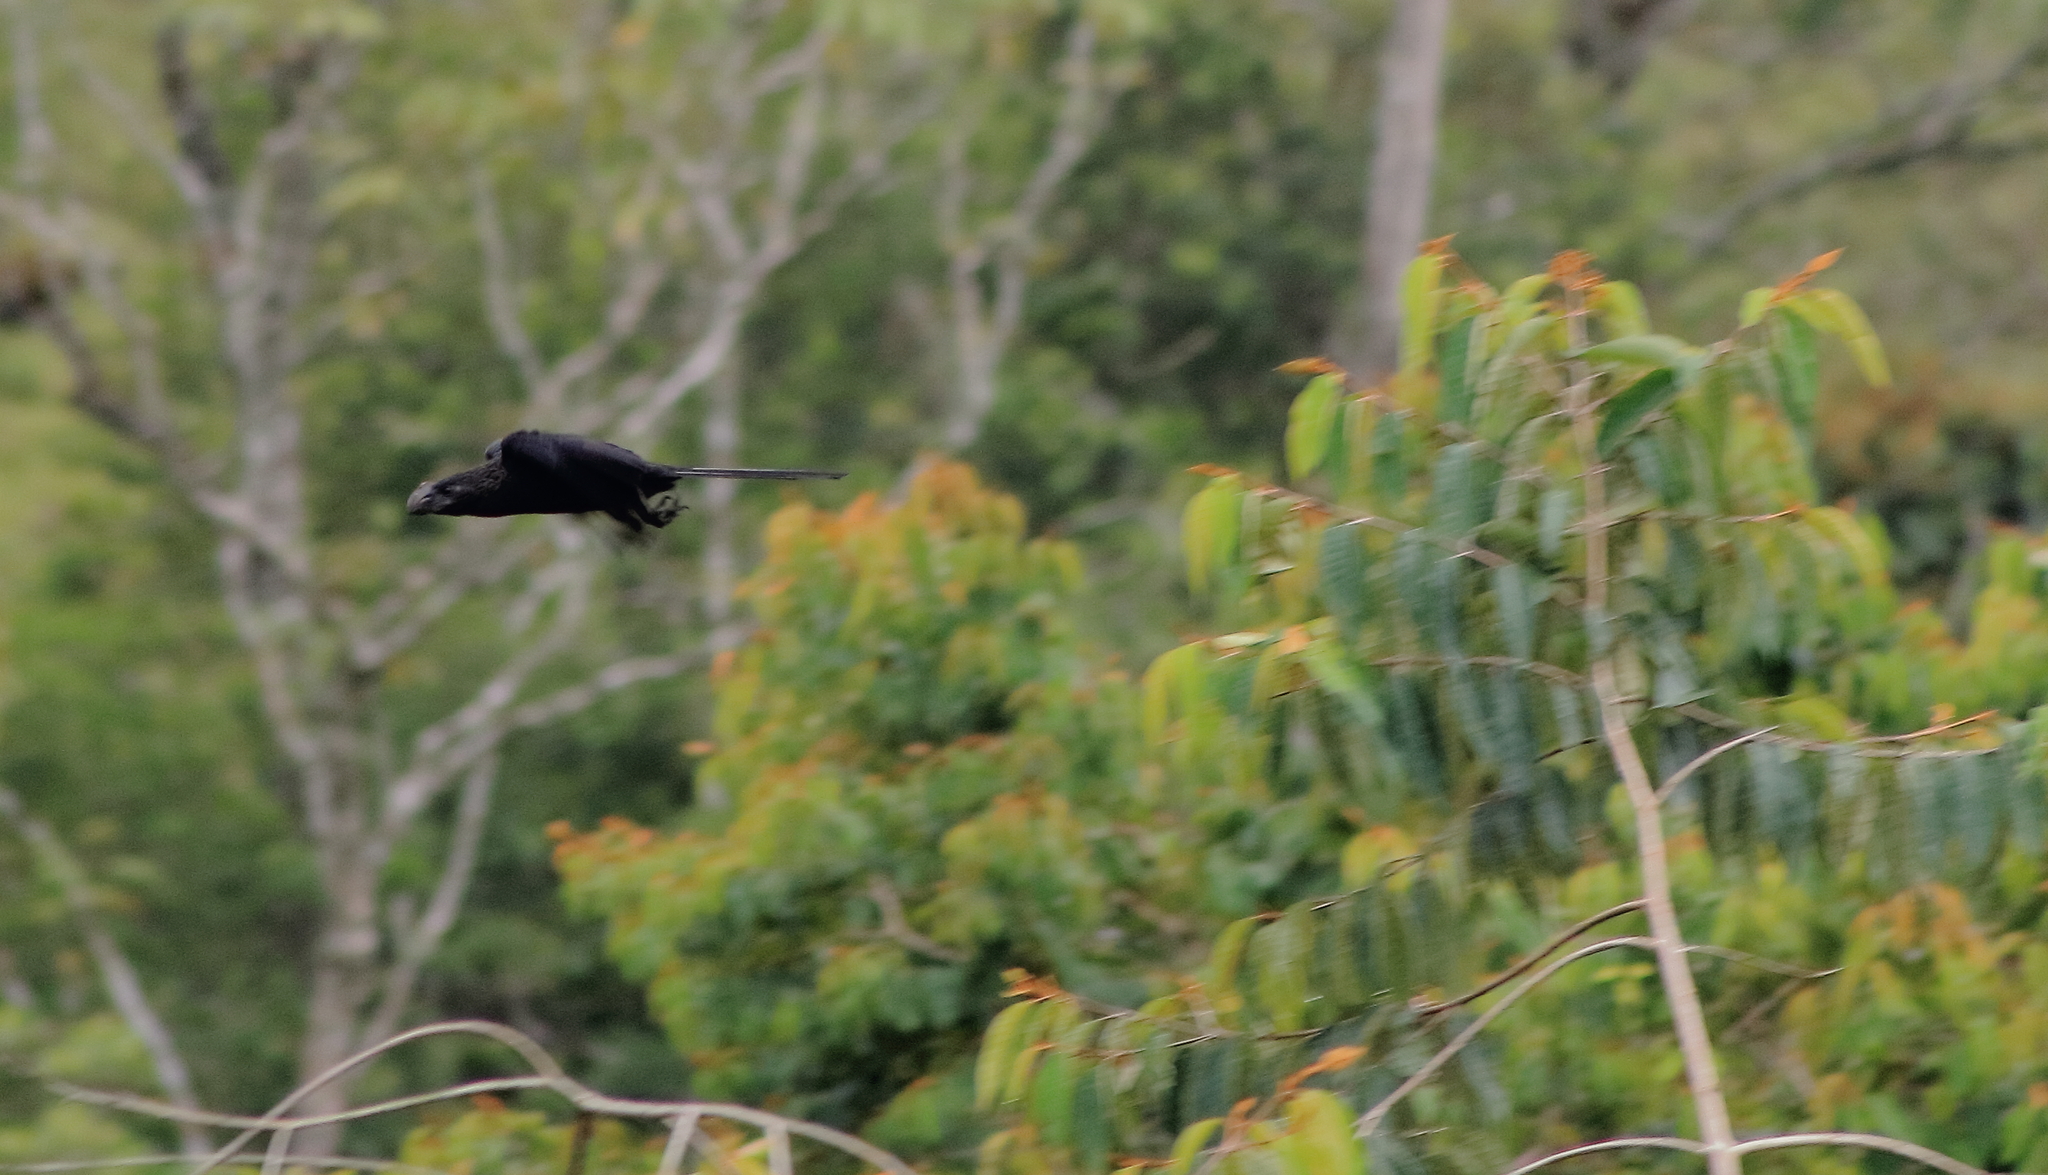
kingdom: Animalia
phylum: Chordata
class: Aves
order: Cuculiformes
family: Cuculidae
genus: Crotophaga
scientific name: Crotophaga ani
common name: Smooth-billed ani
